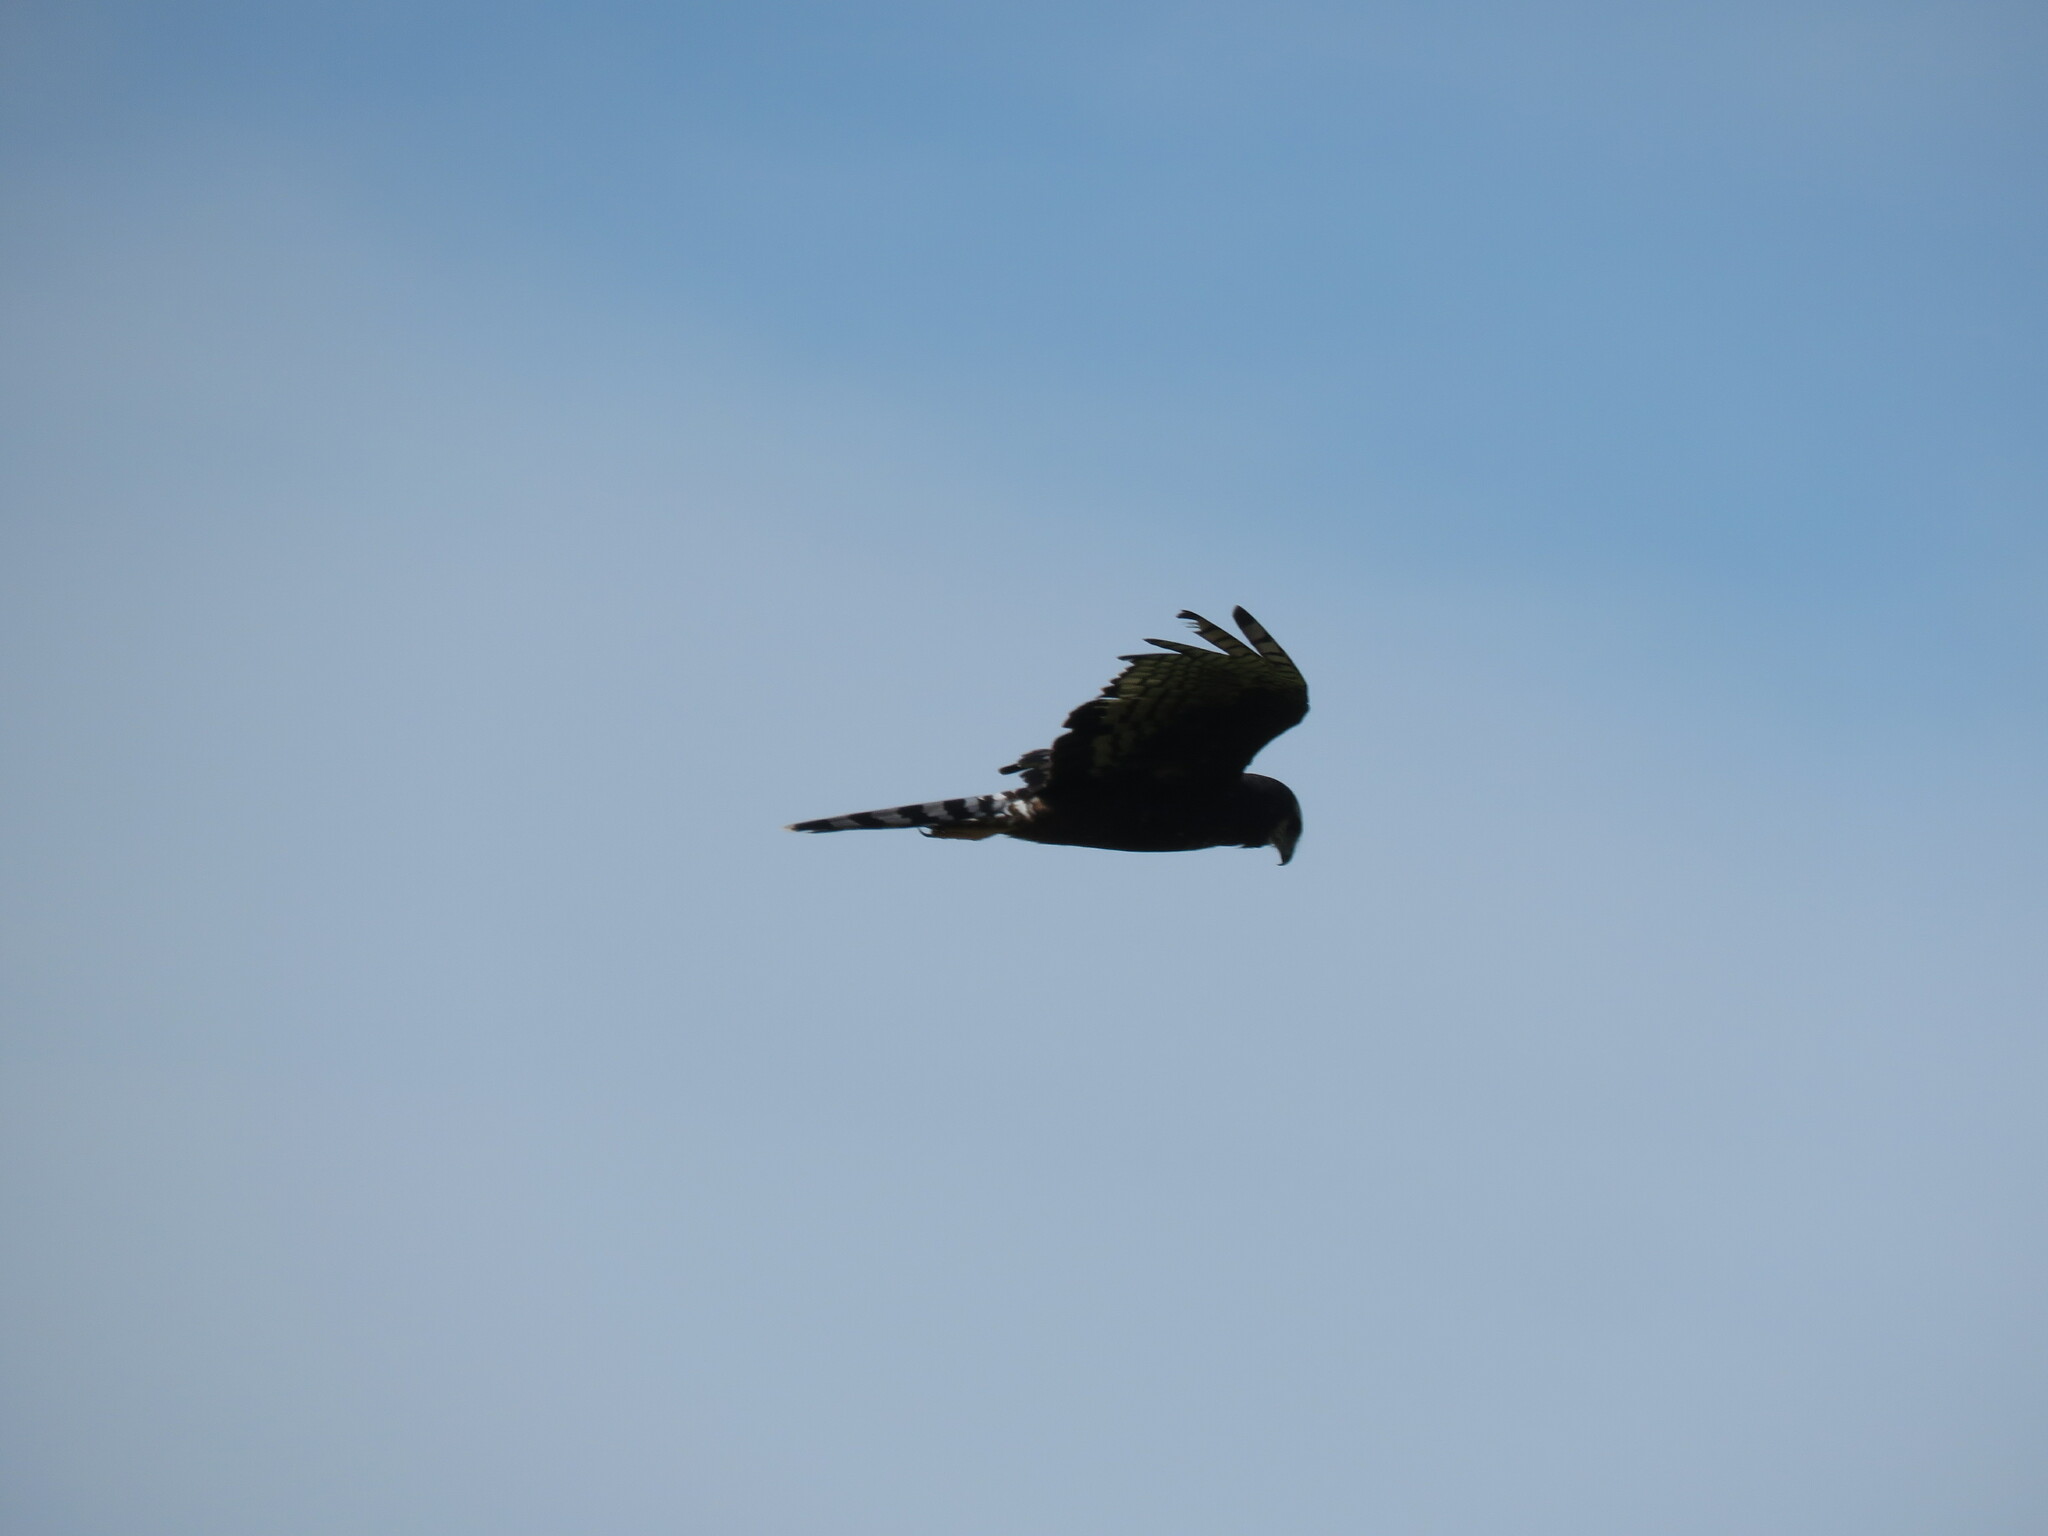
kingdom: Animalia
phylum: Chordata
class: Aves
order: Accipitriformes
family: Accipitridae
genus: Circus
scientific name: Circus buffoni
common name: Long-winged harrier
